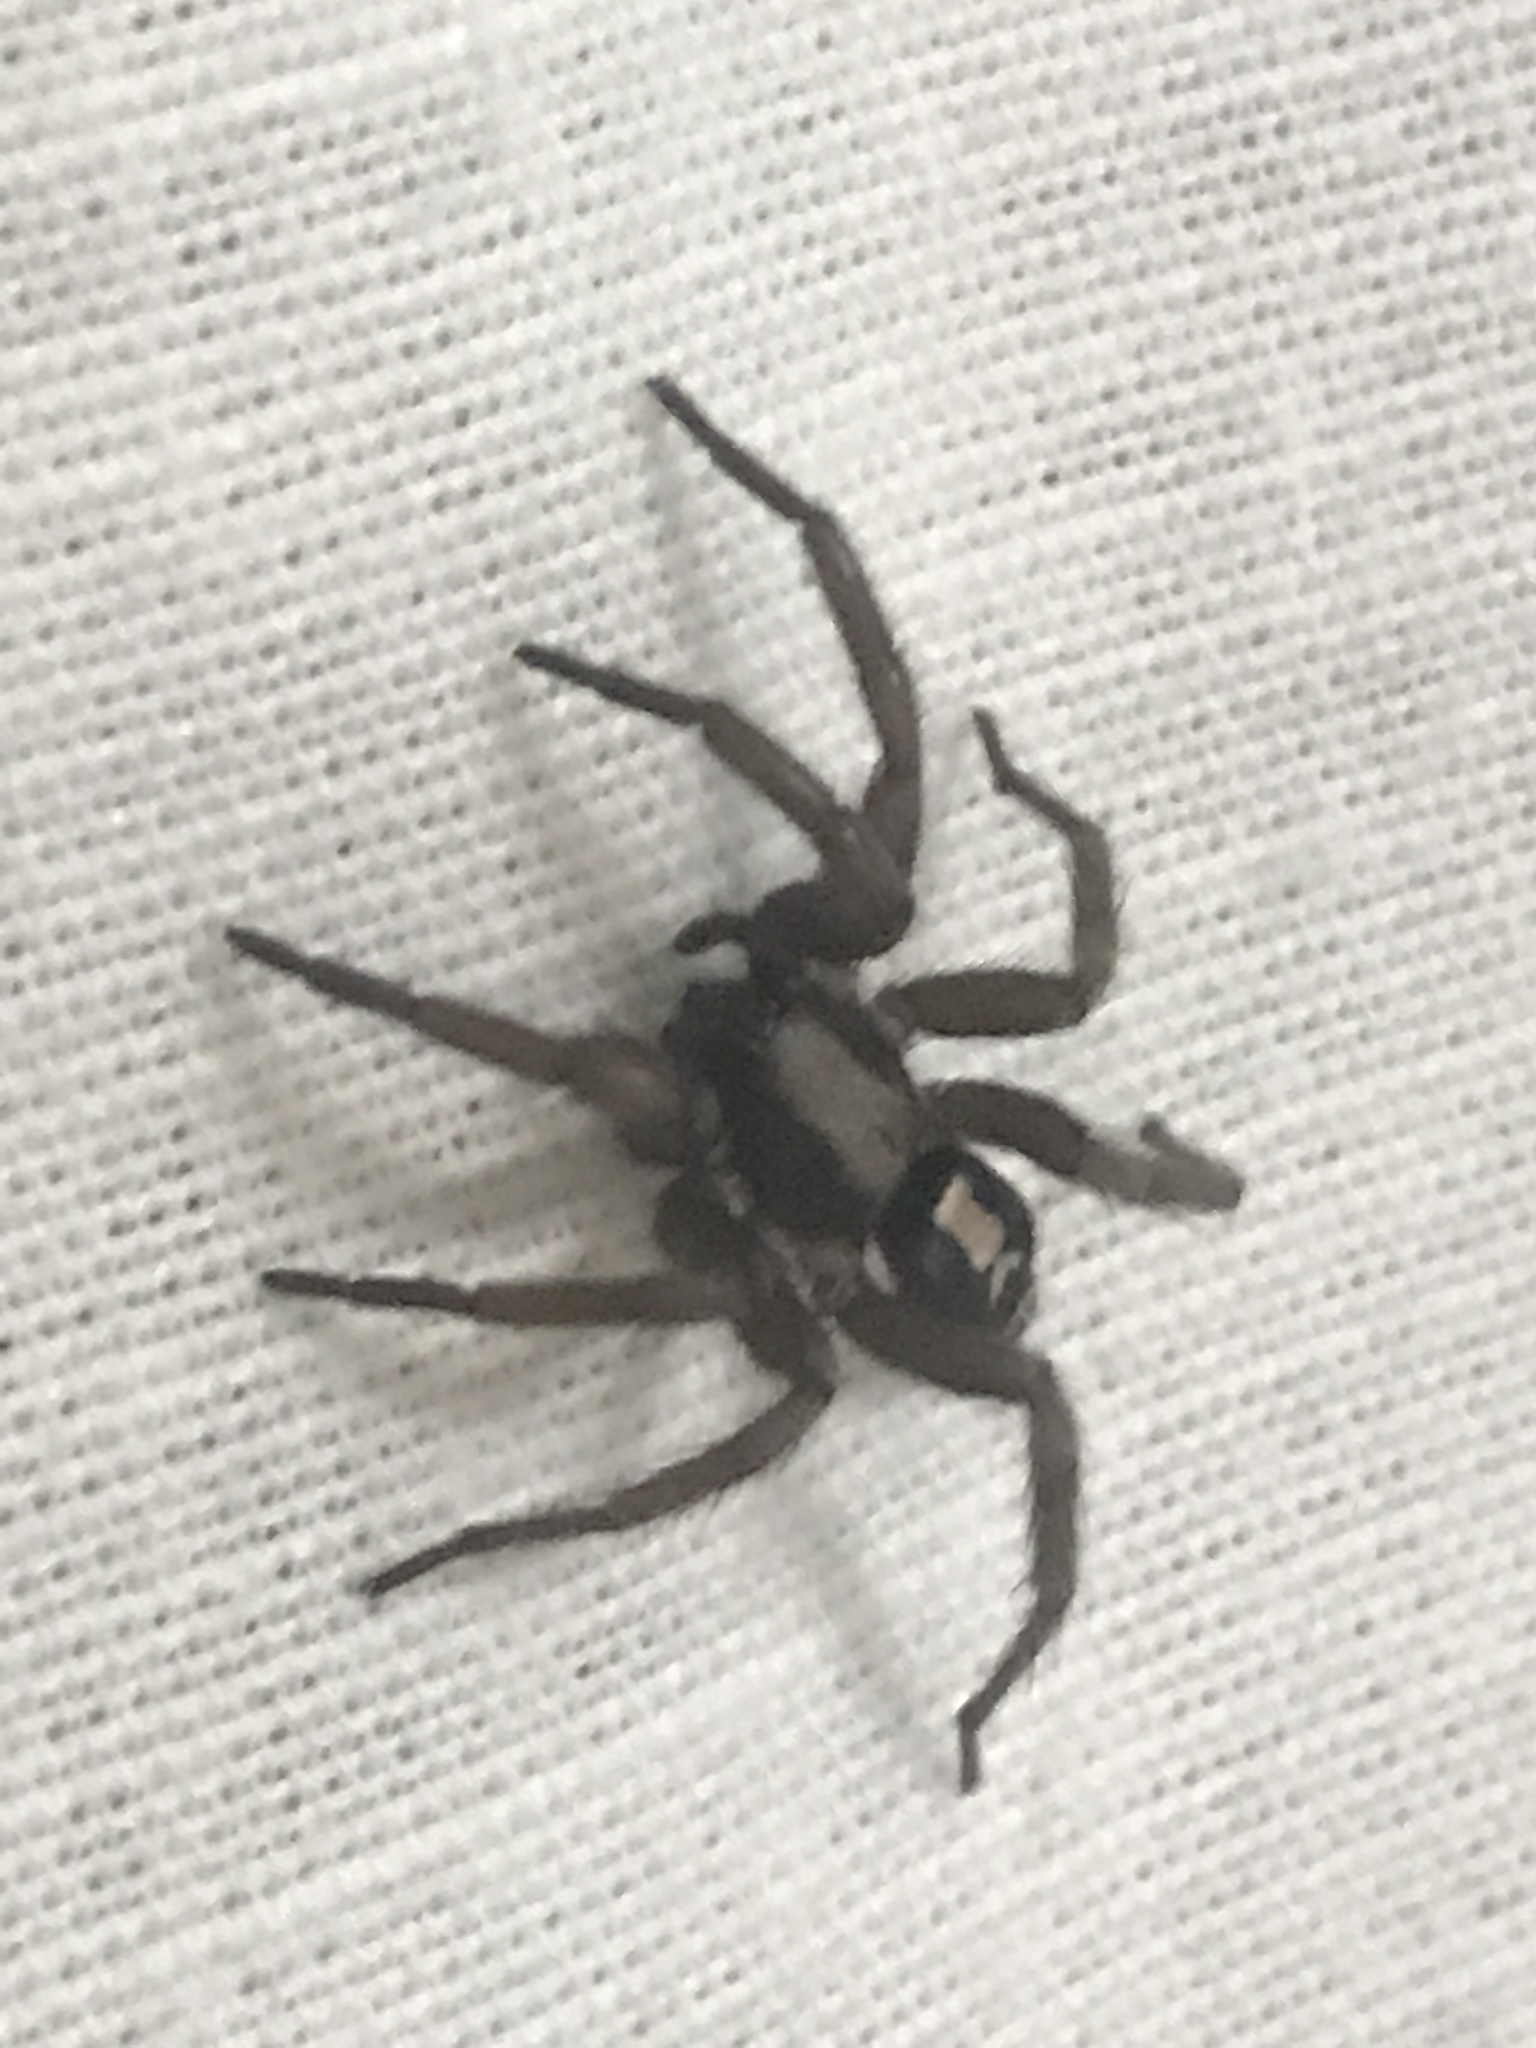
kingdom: Animalia
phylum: Arthropoda
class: Arachnida
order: Araneae
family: Gnaphosidae
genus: Herpyllus
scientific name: Herpyllus ecclesiasticus
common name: Eastern parson spider
